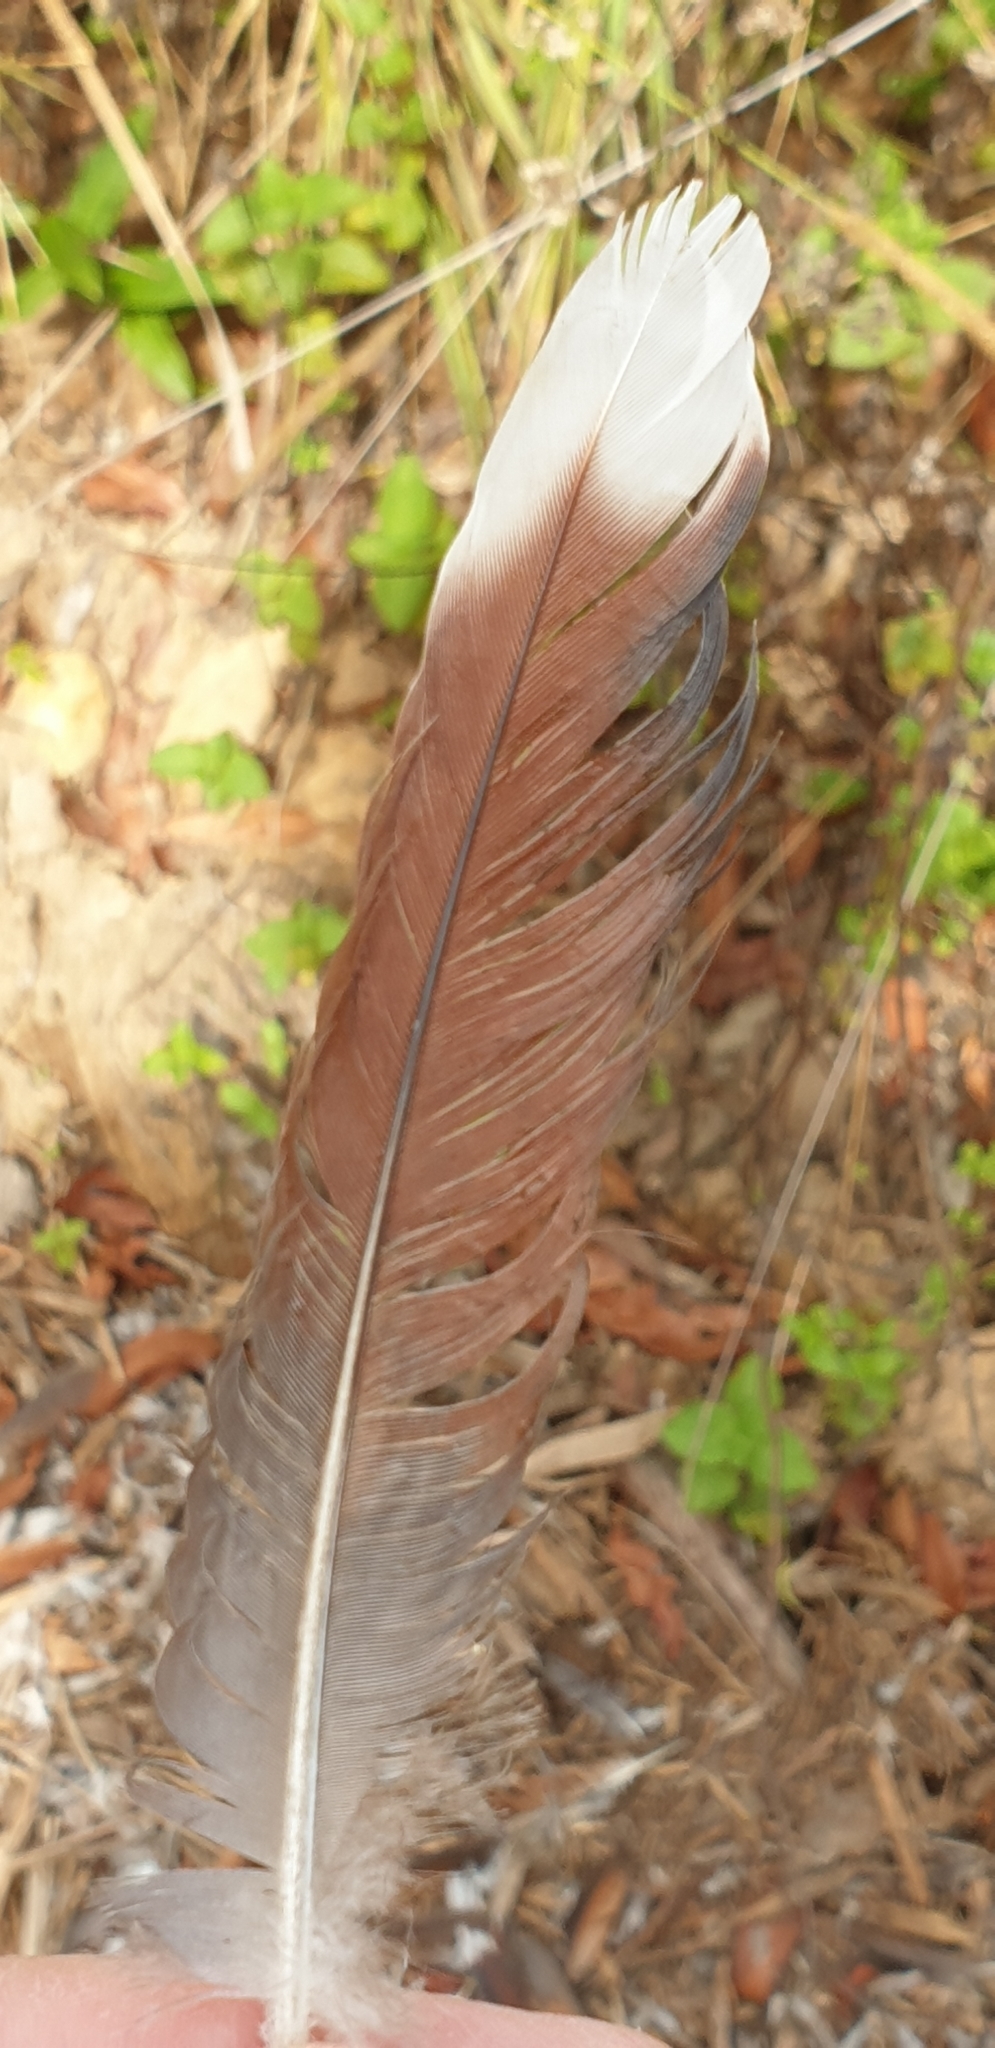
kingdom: Animalia
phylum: Chordata
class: Aves
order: Columbiformes
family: Columbidae
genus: Geopelia
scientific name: Geopelia humeralis
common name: Bar-shouldered dove
